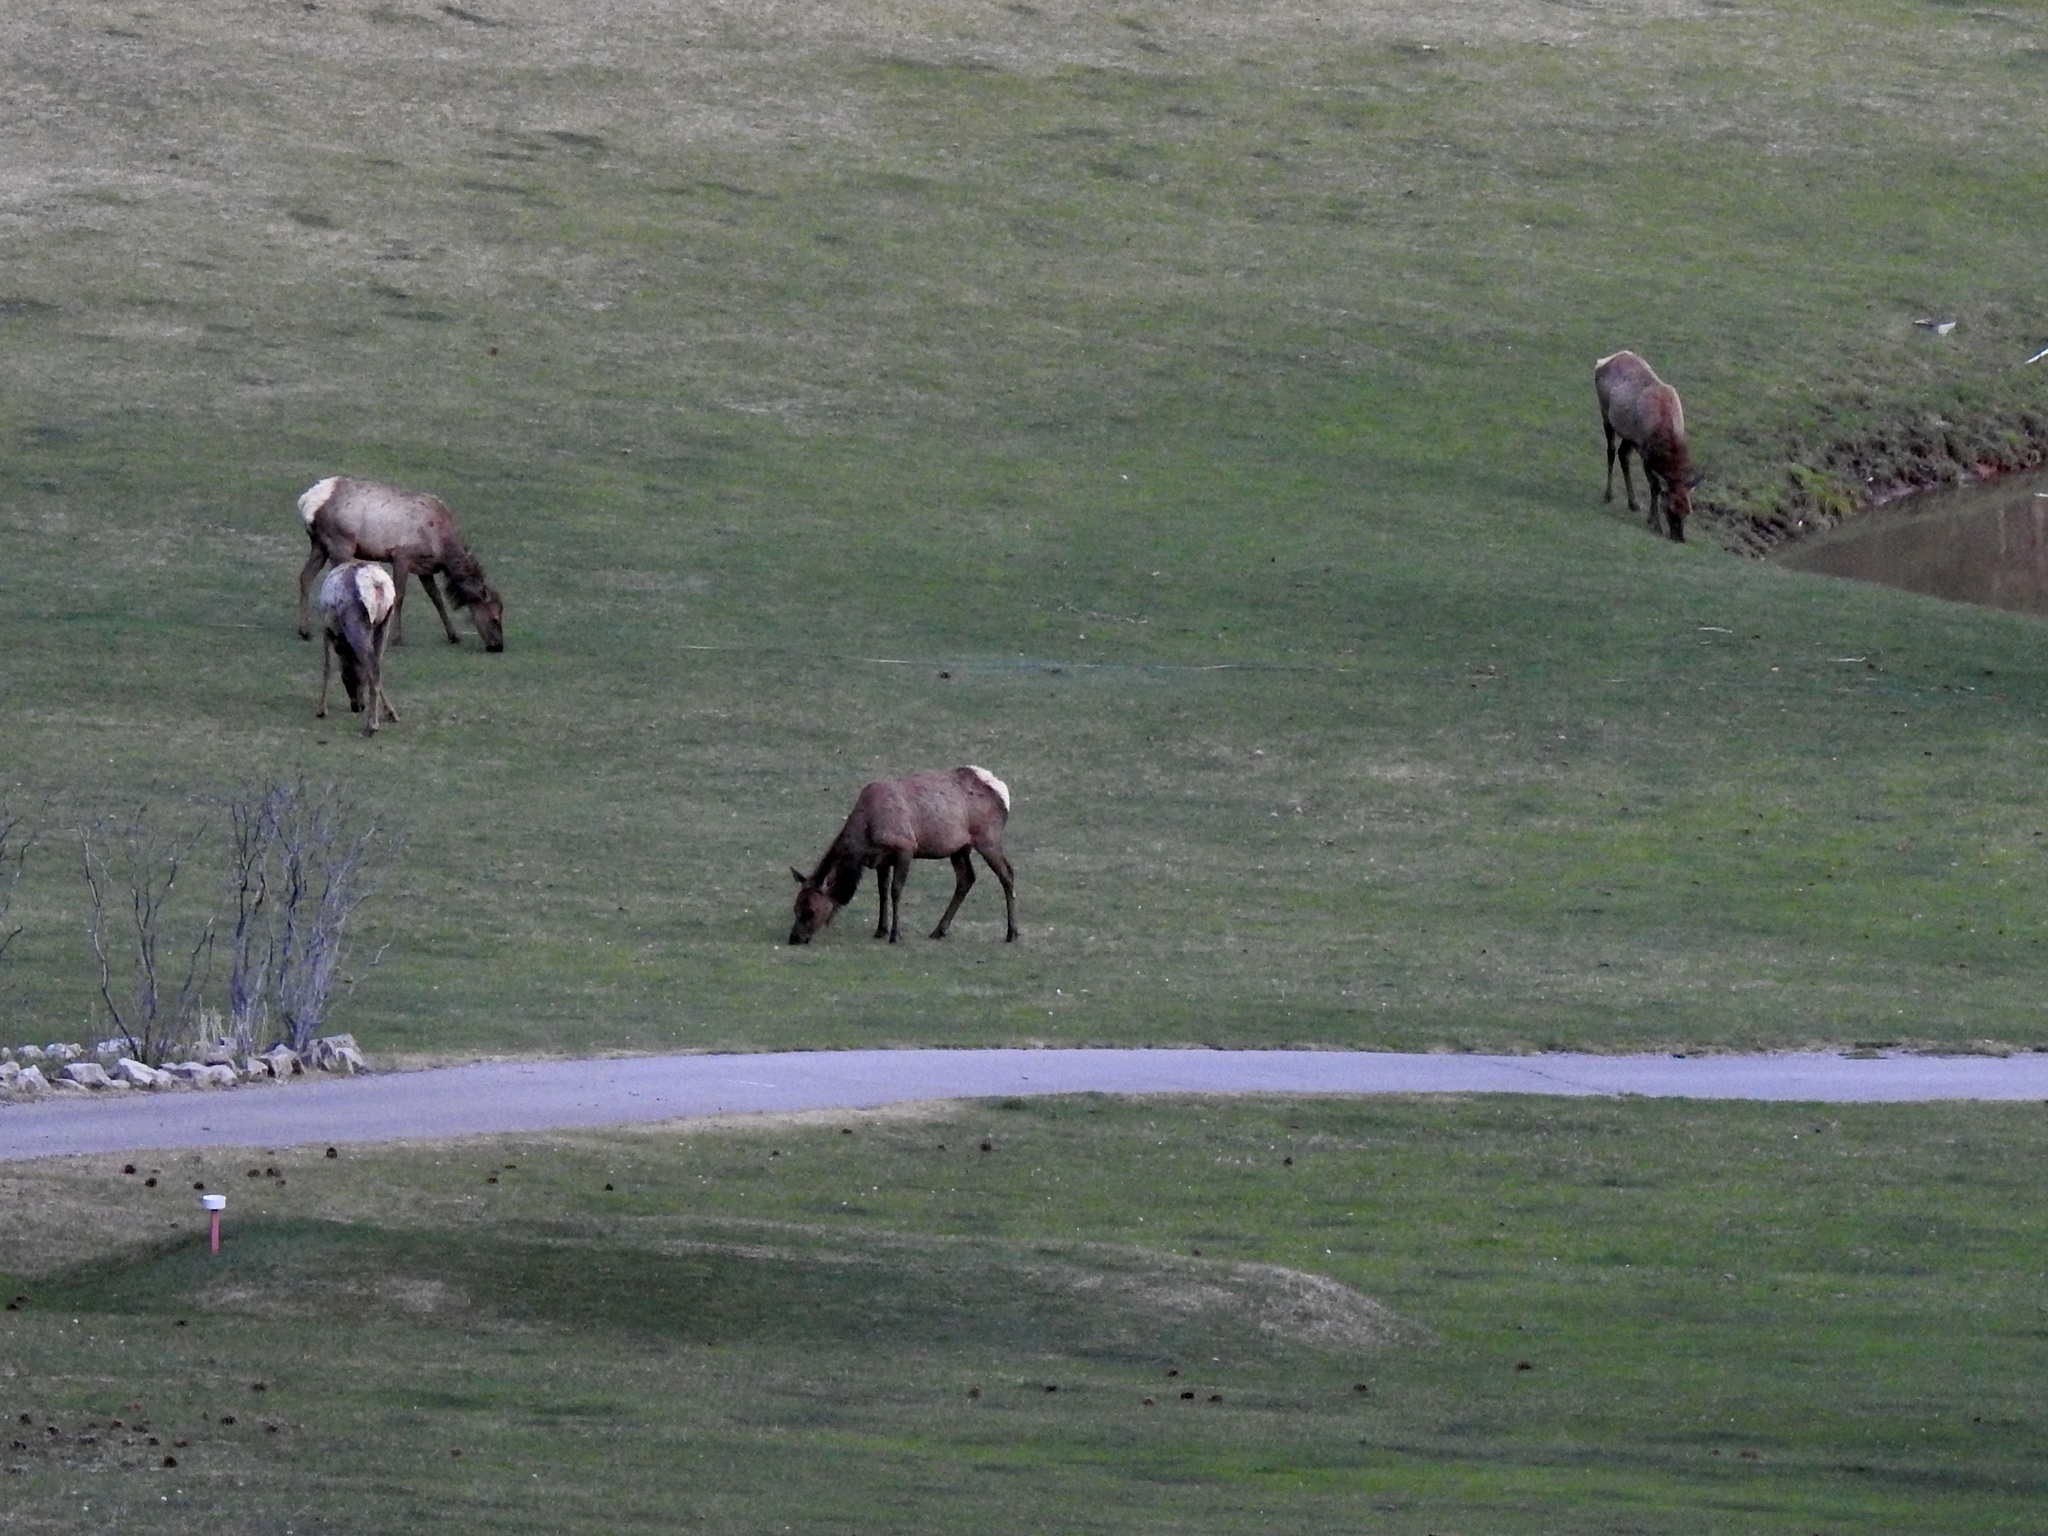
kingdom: Animalia
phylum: Chordata
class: Mammalia
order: Artiodactyla
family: Cervidae
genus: Cervus
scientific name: Cervus elaphus
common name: Red deer
